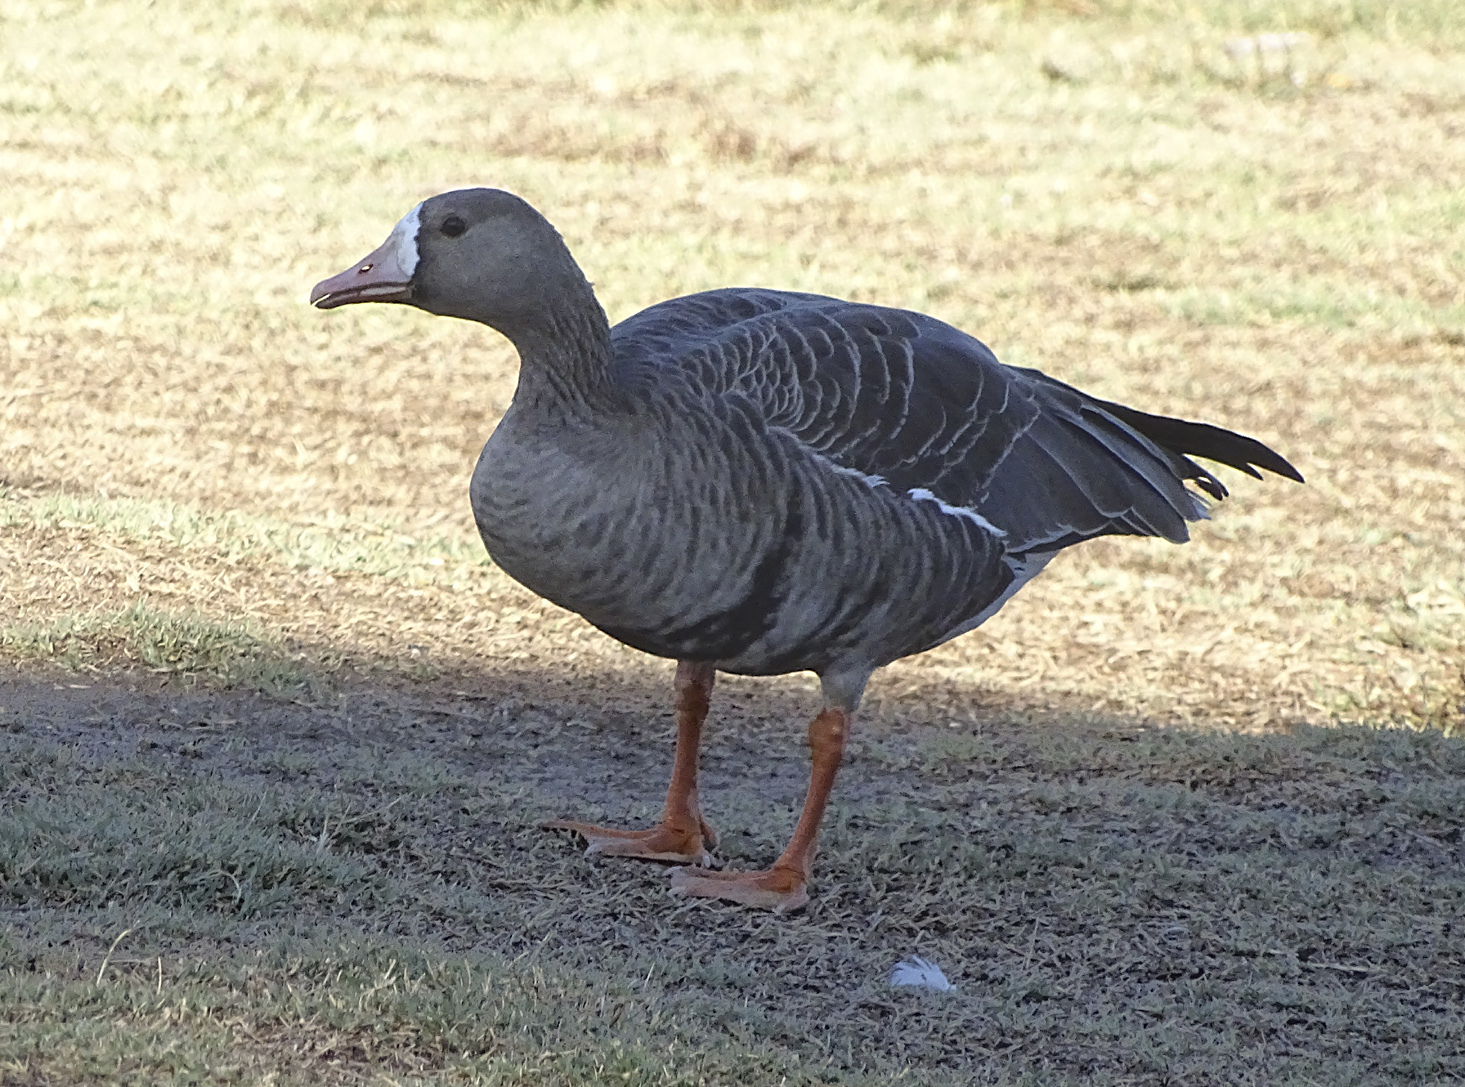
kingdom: Animalia
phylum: Chordata
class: Aves
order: Anseriformes
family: Anatidae
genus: Anser
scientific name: Anser albifrons
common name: Greater white-fronted goose
